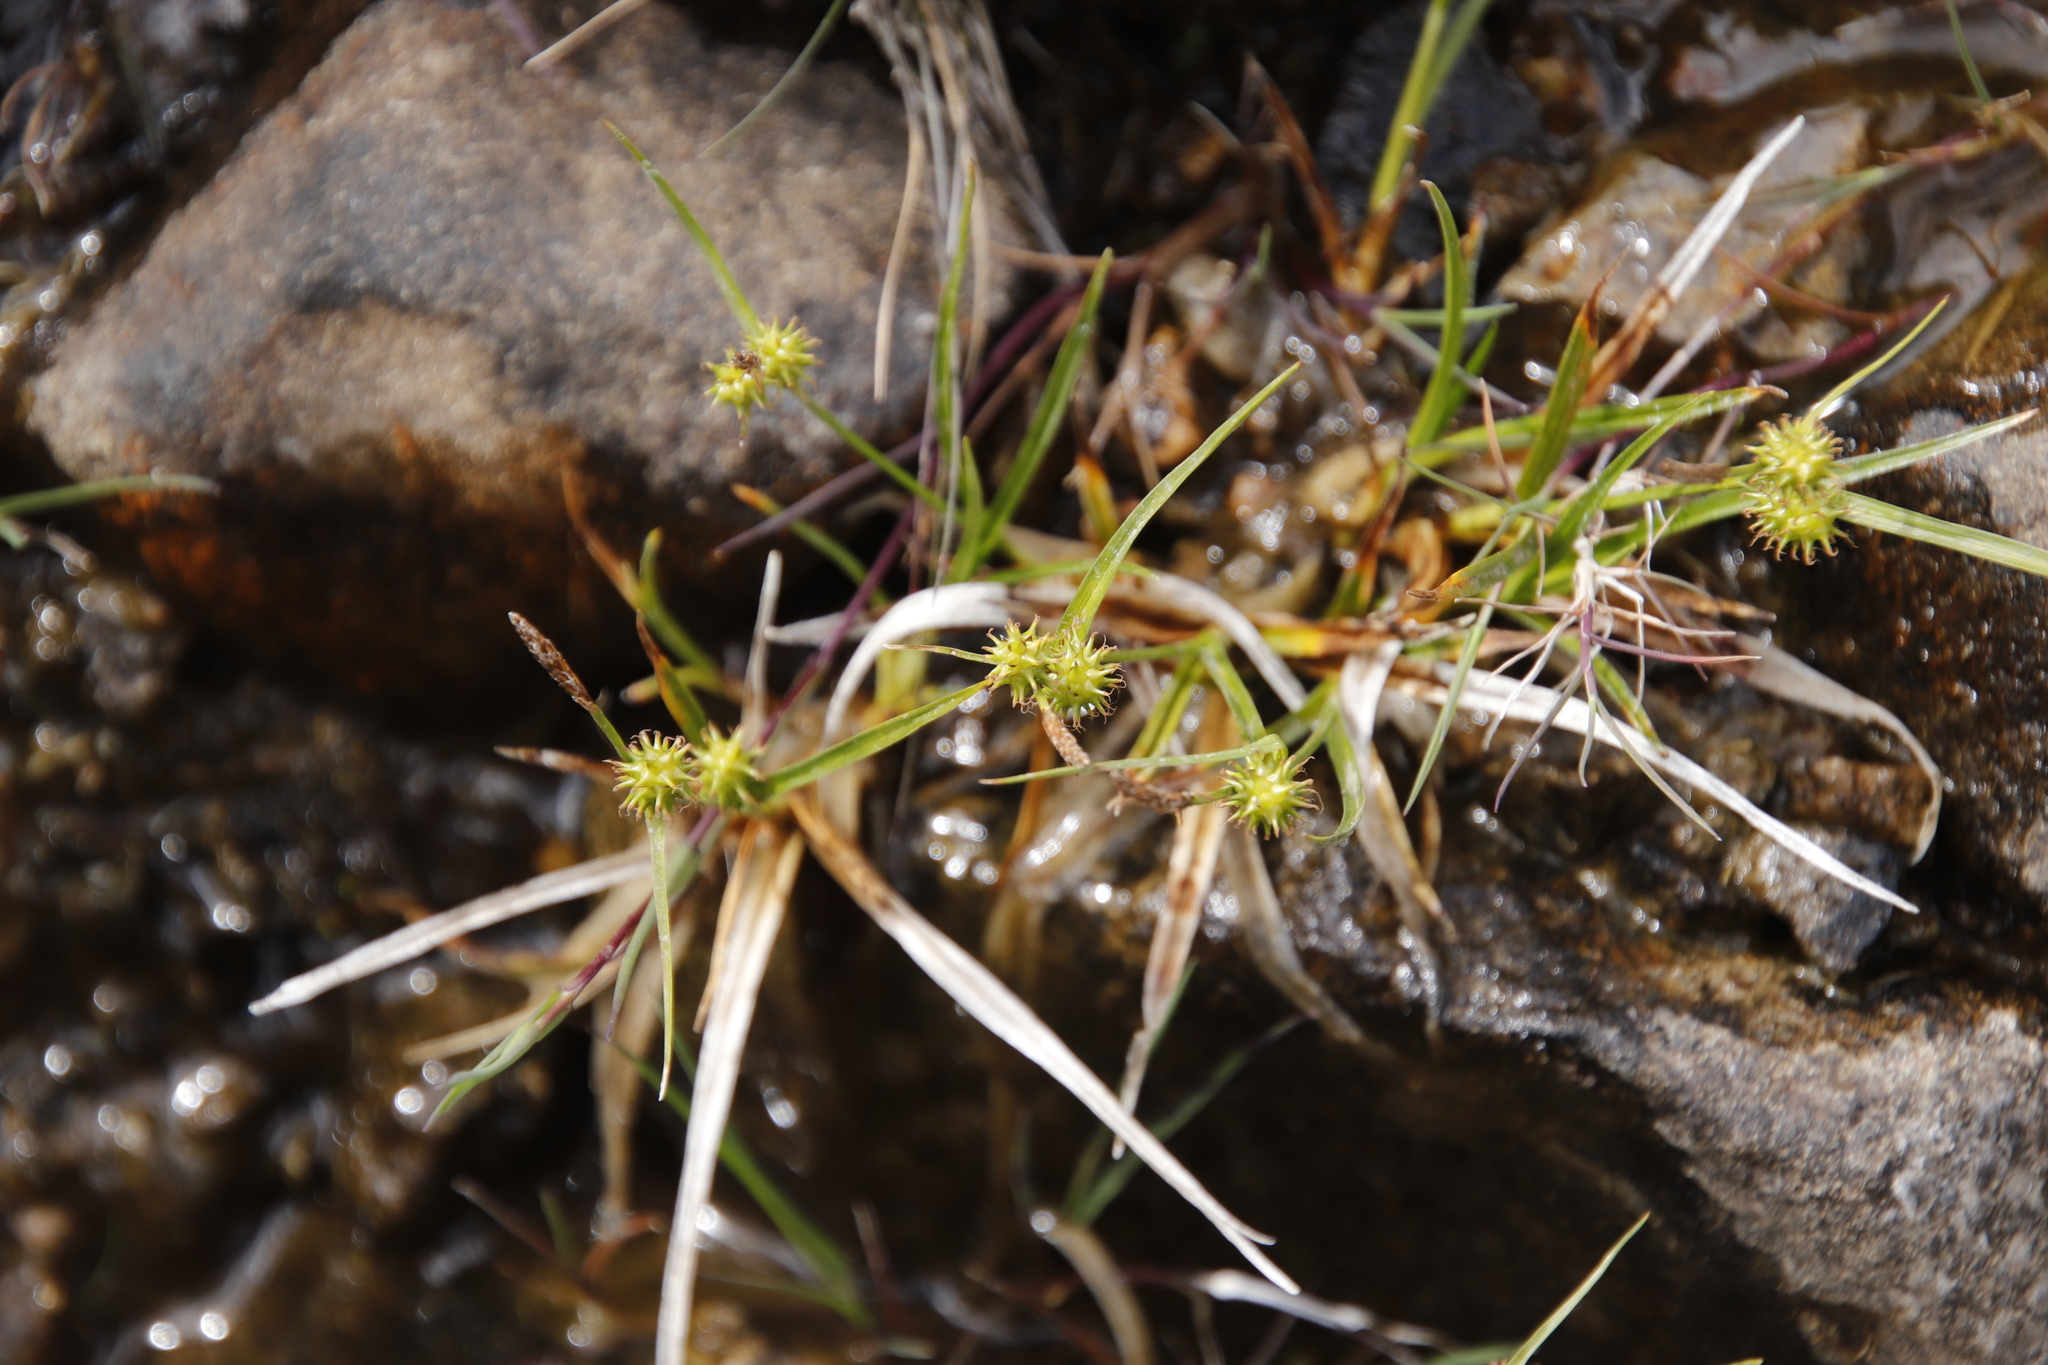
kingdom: Plantae
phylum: Tracheophyta
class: Liliopsida
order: Poales
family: Cyperaceae
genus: Carex
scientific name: Carex demissa
